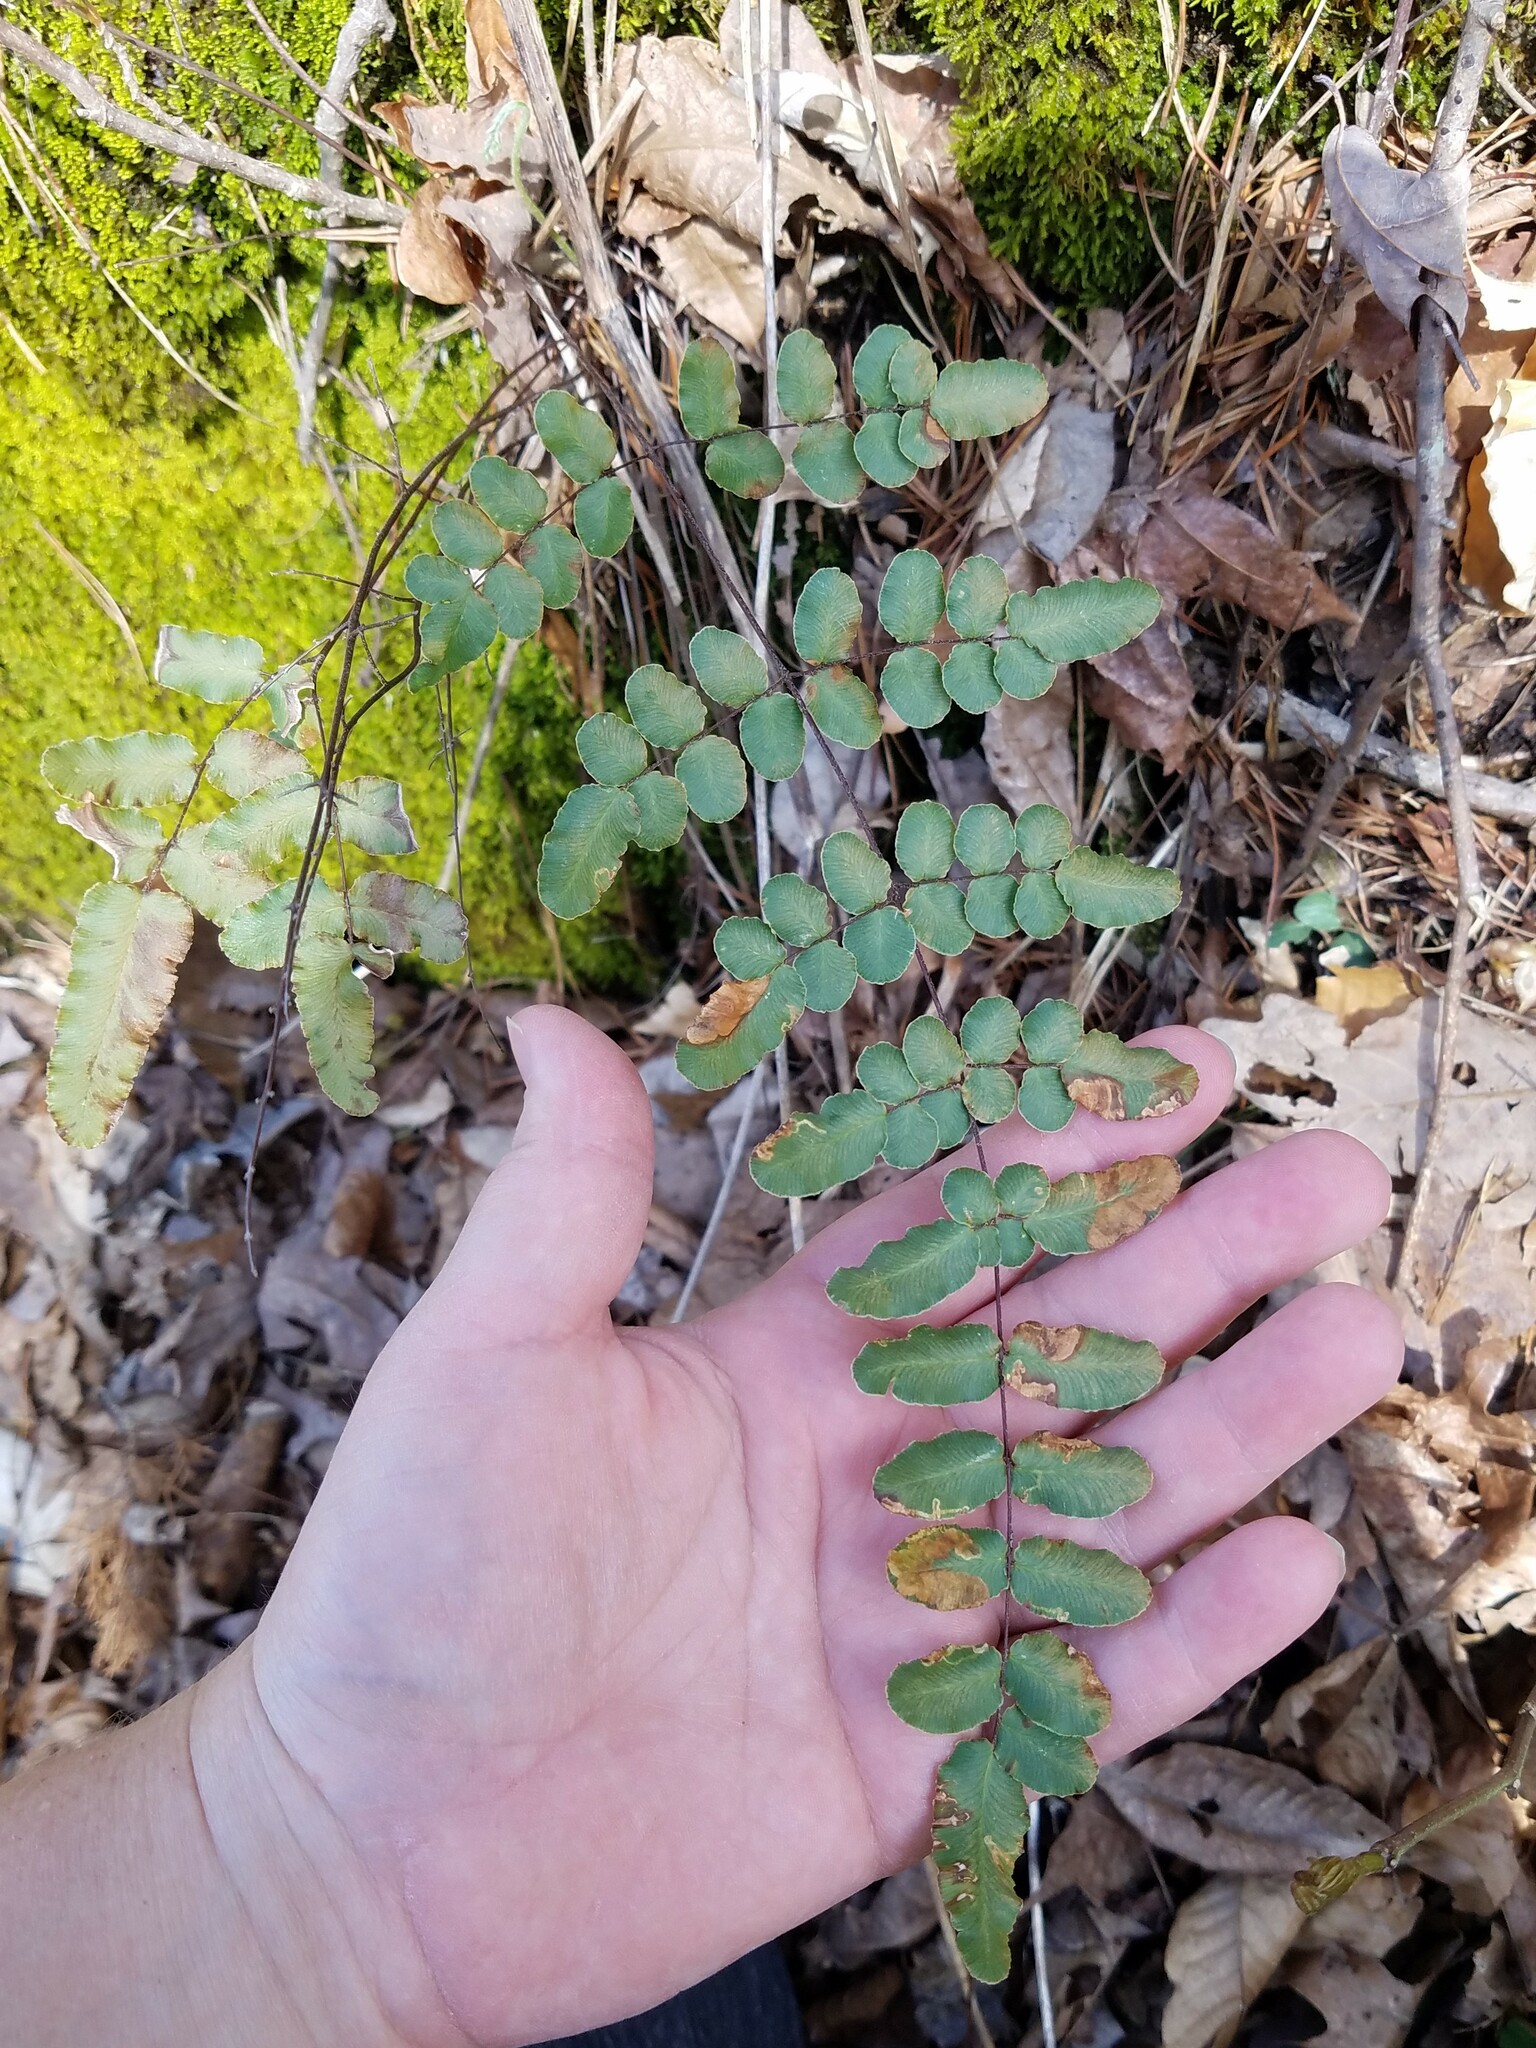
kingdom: Plantae
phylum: Tracheophyta
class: Polypodiopsida
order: Polypodiales
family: Pteridaceae
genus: Pellaea
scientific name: Pellaea atropurpurea
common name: Hairy cliffbrake
